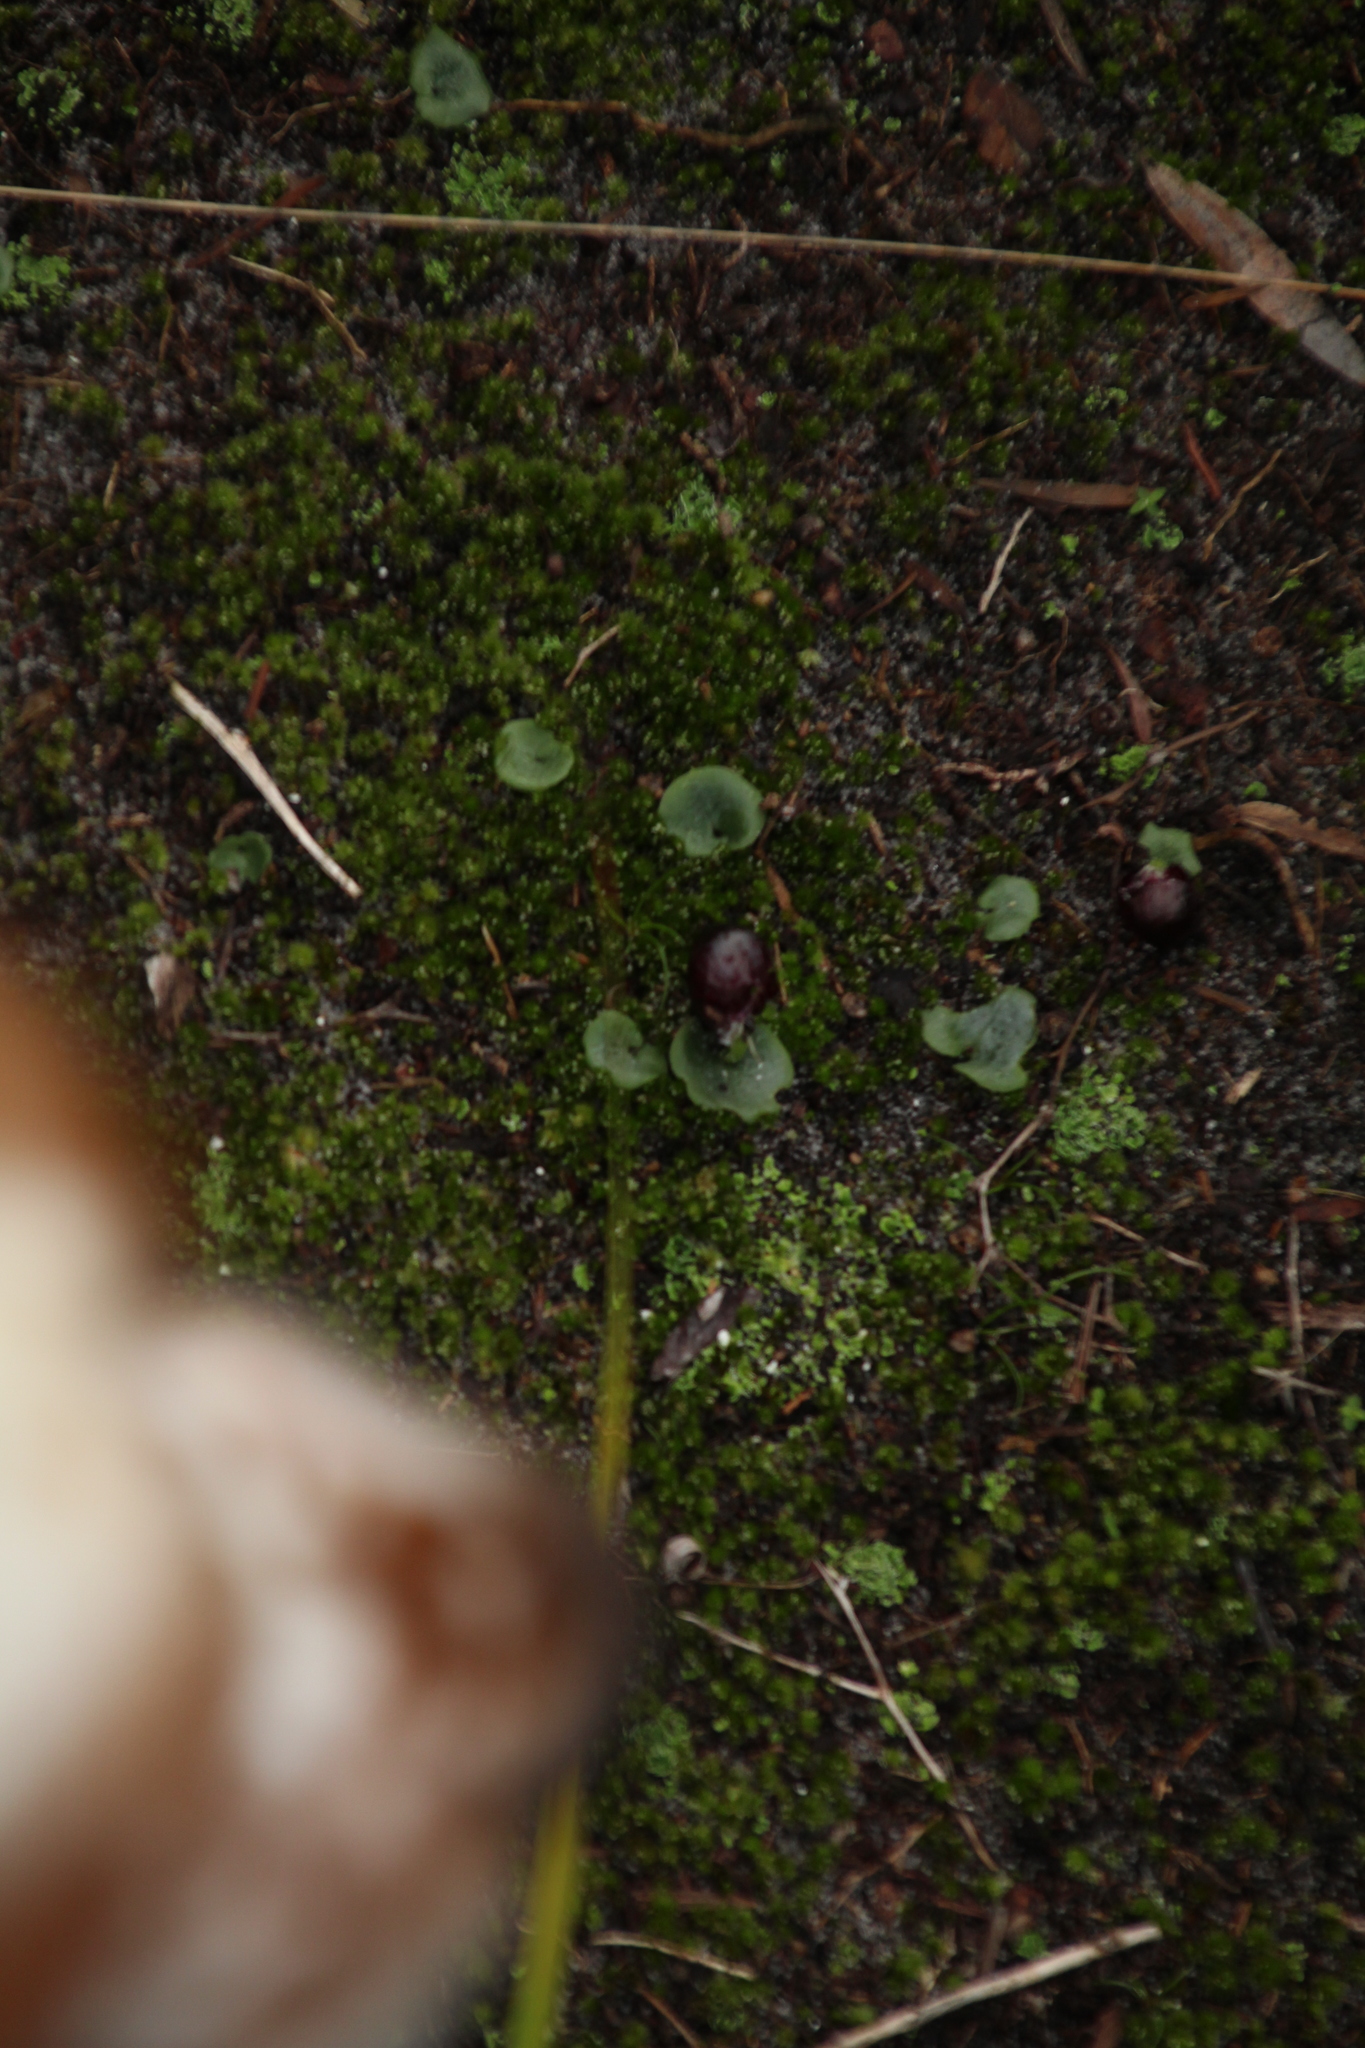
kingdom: Plantae
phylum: Tracheophyta
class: Liliopsida
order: Asparagales
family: Orchidaceae
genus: Corybas
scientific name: Corybas recurvus
